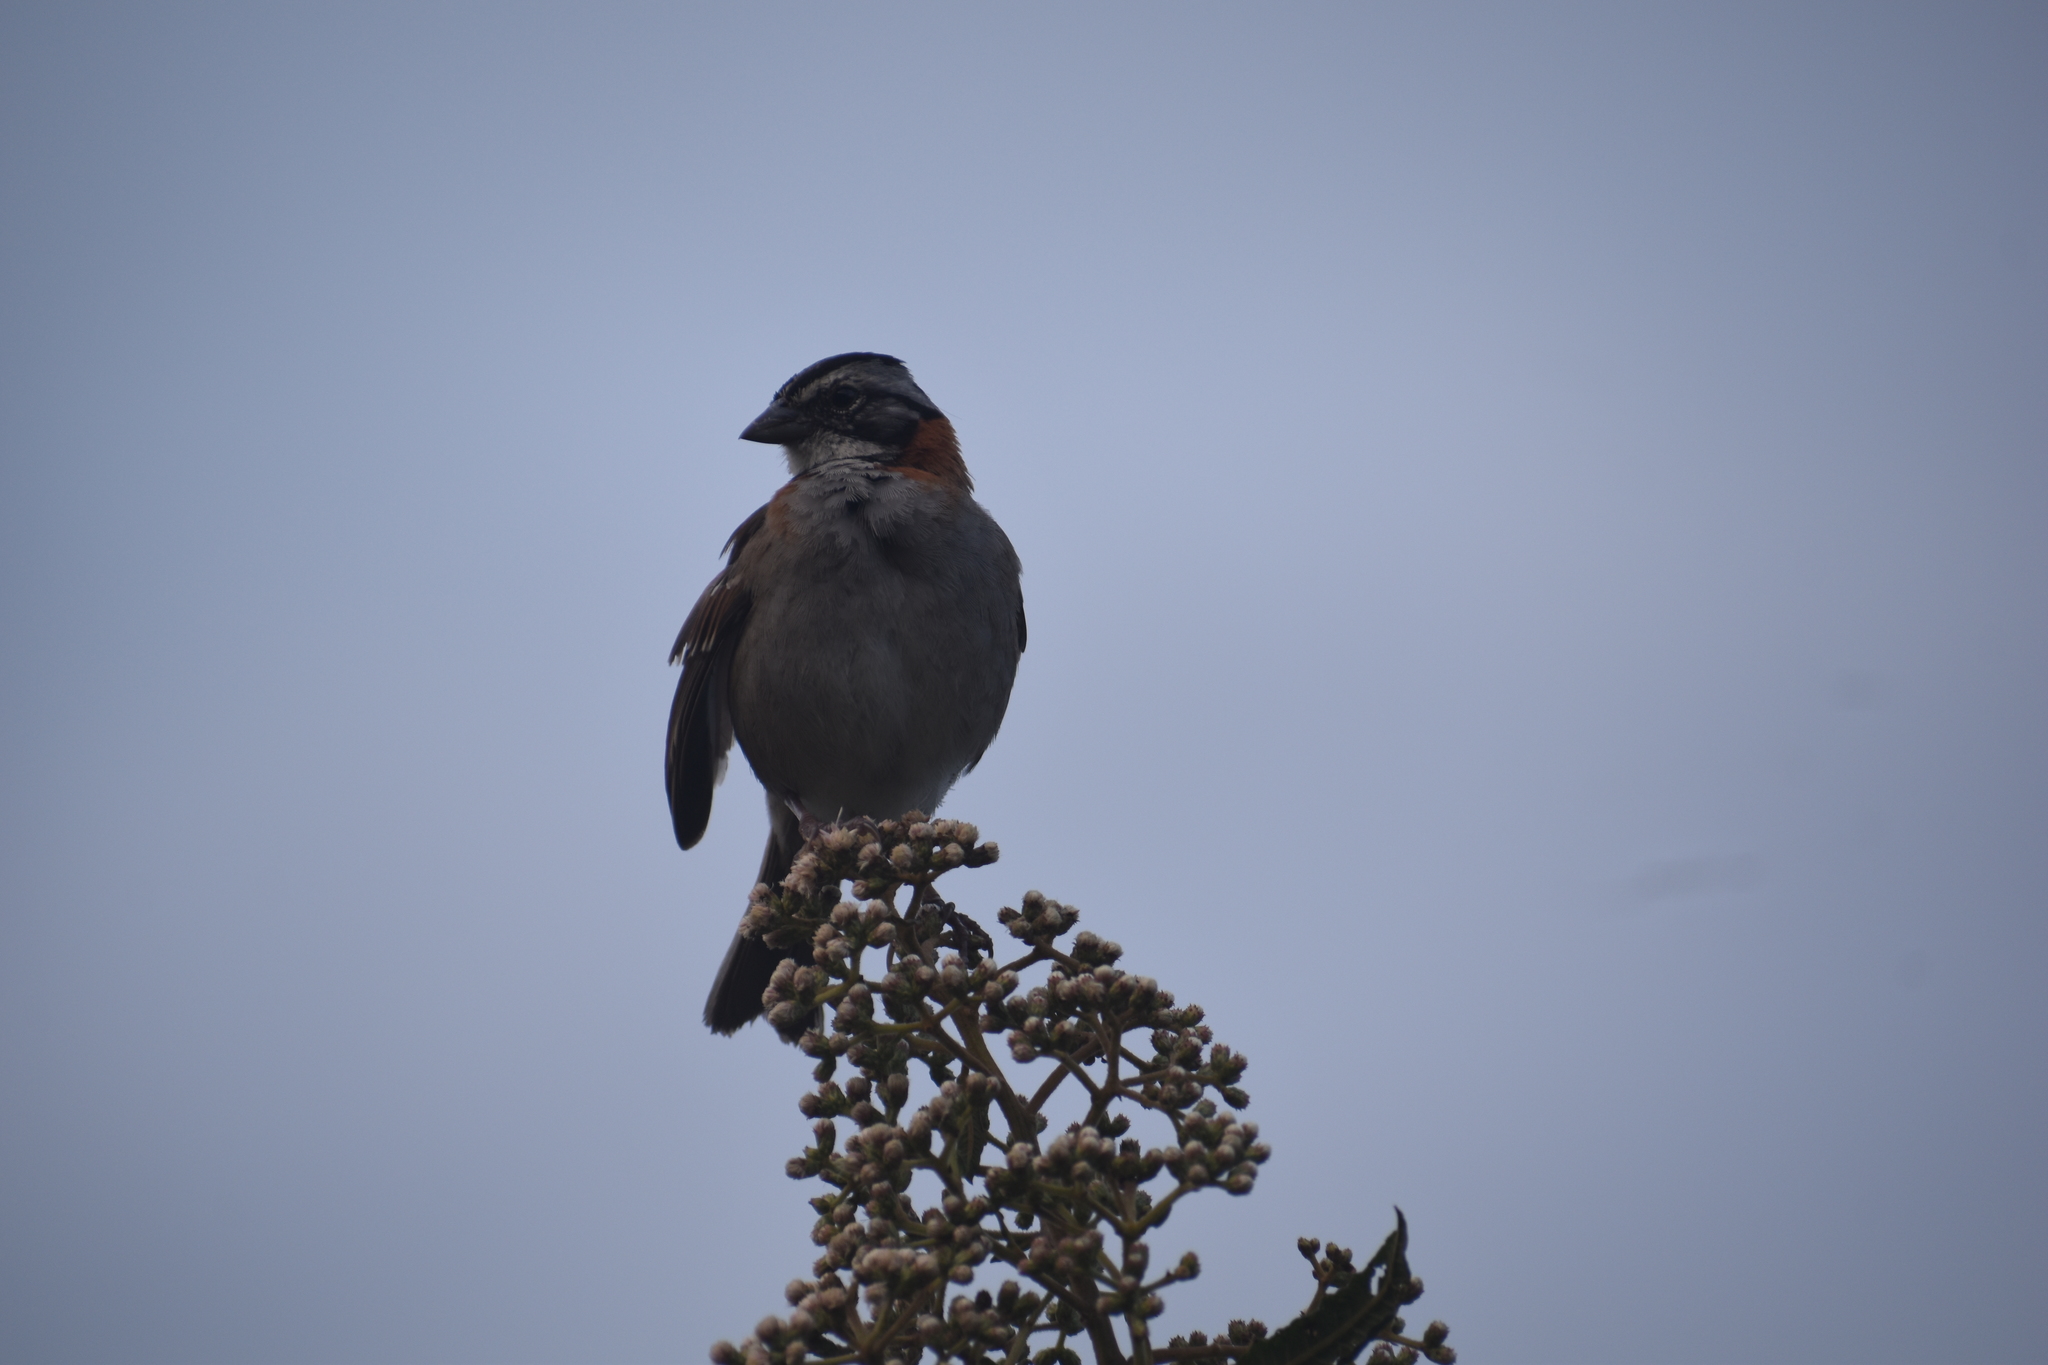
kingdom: Animalia
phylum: Chordata
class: Aves
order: Passeriformes
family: Passerellidae
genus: Zonotrichia
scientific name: Zonotrichia capensis
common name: Rufous-collared sparrow
